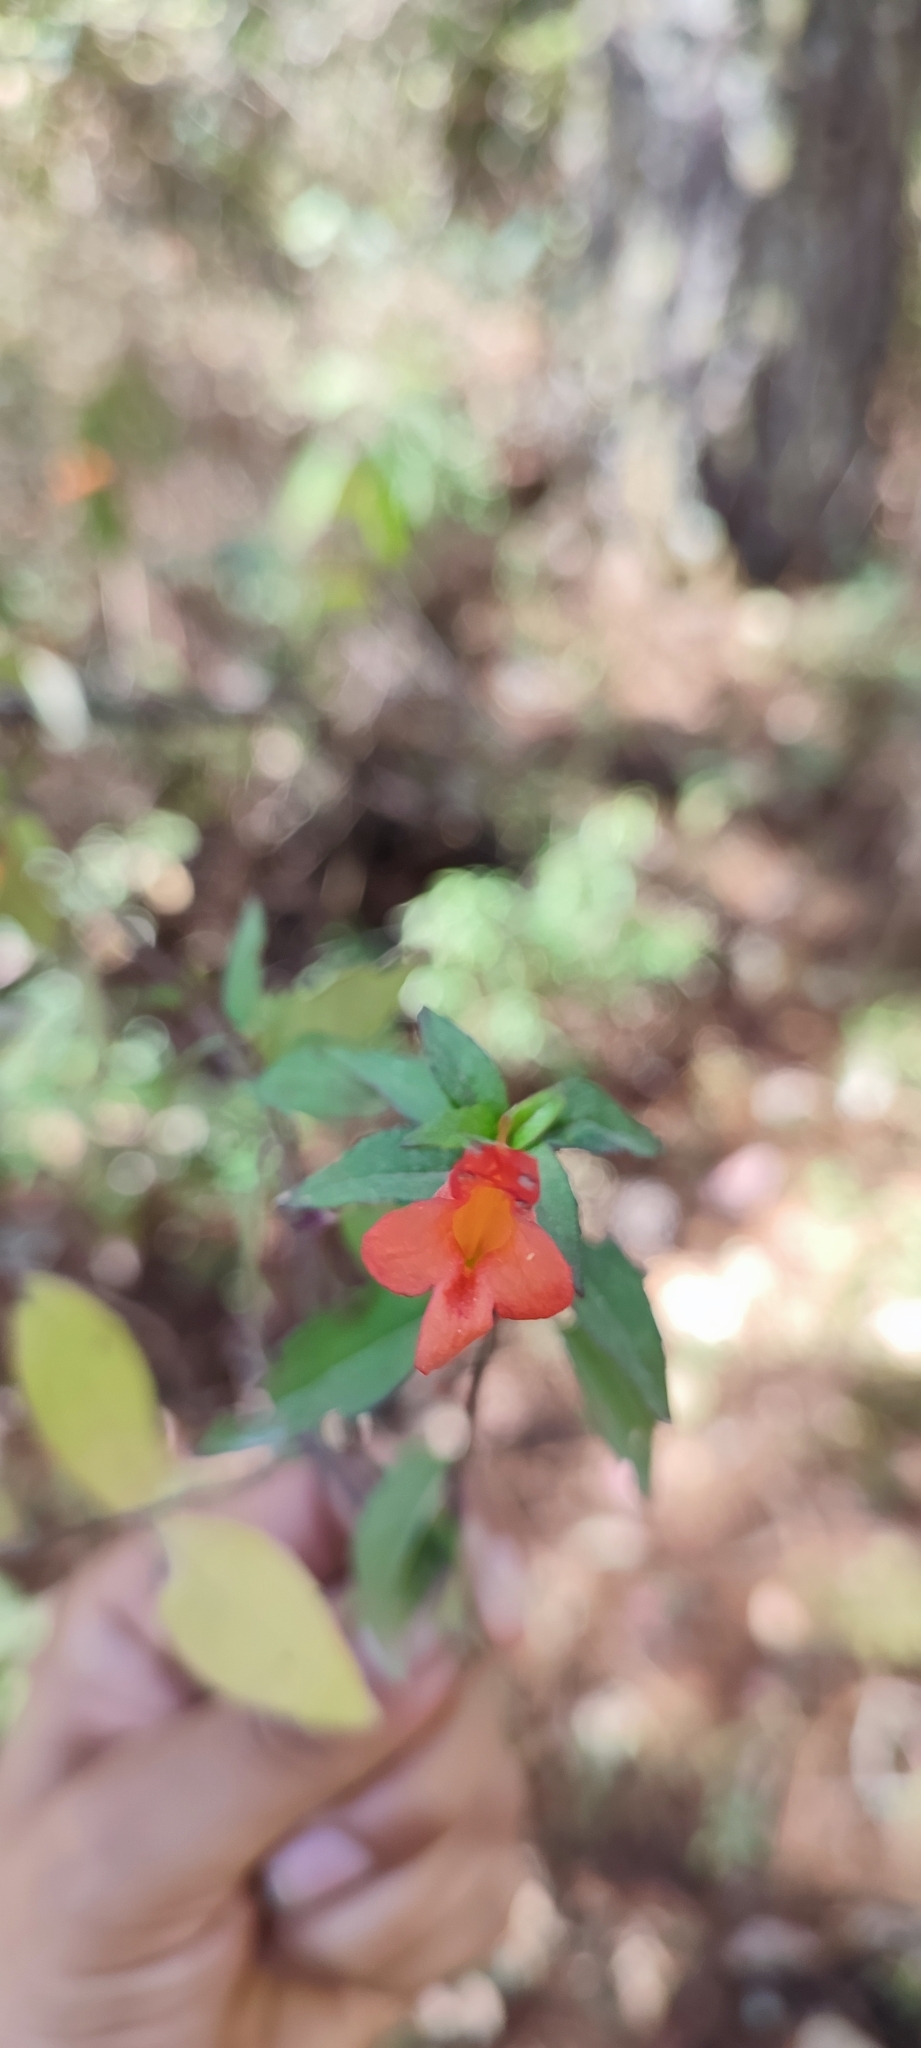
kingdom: Plantae
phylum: Tracheophyta
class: Magnoliopsida
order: Lamiales
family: Lamiaceae
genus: Clinopodium
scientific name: Clinopodium macrostemum
